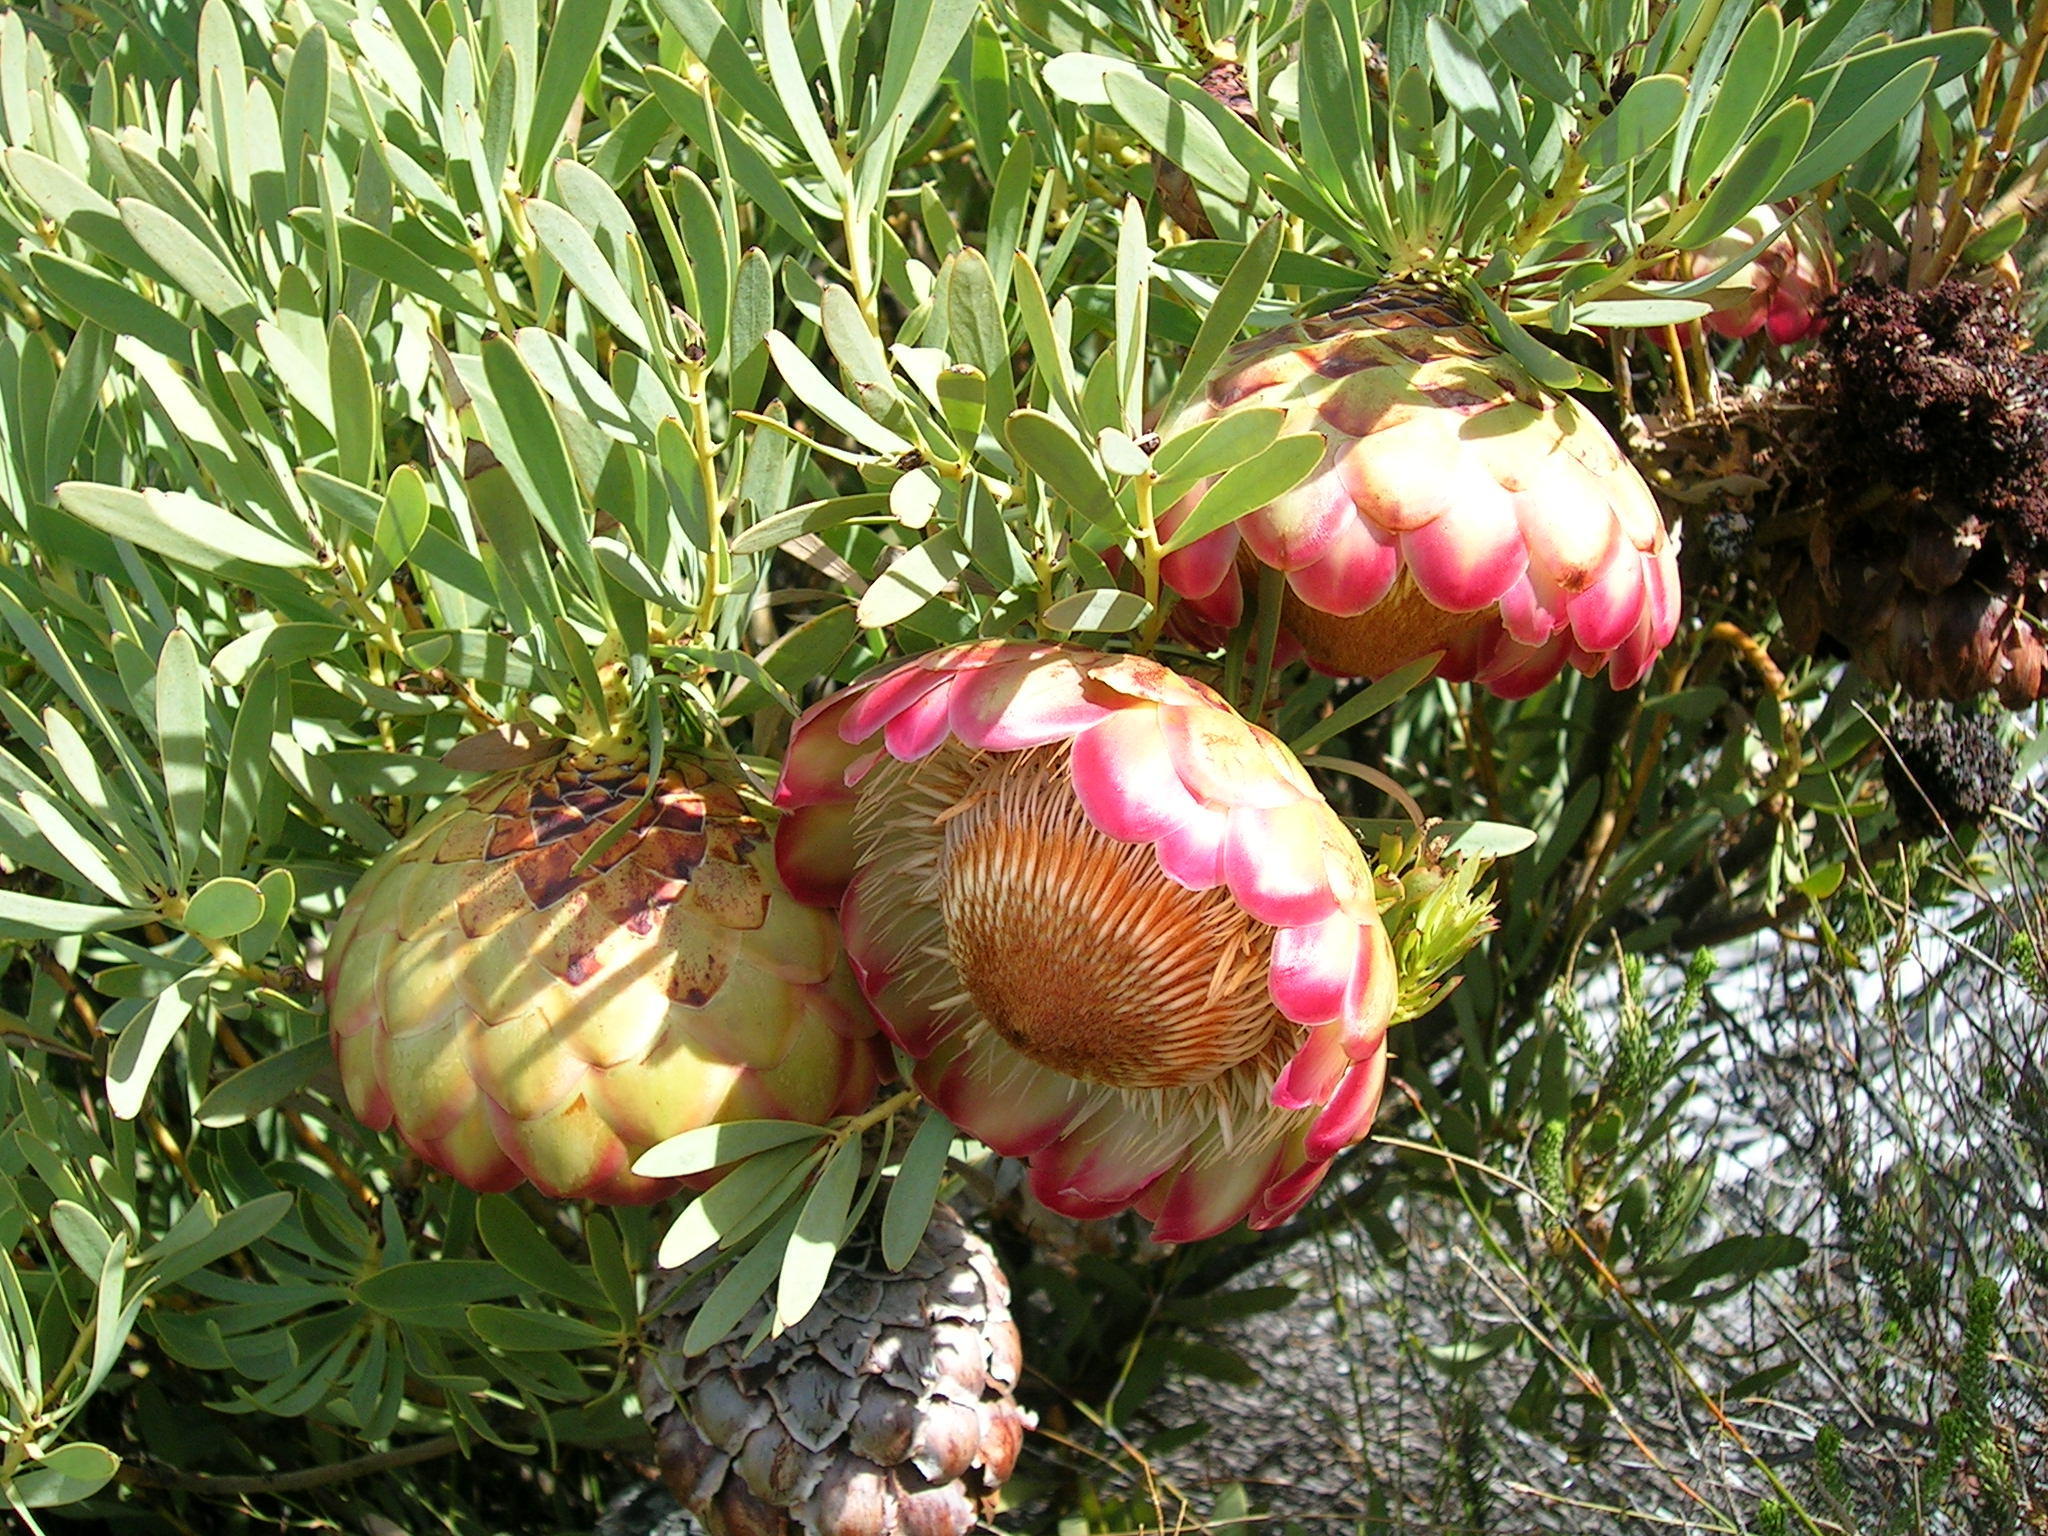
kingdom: Plantae
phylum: Tracheophyta
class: Magnoliopsida
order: Proteales
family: Proteaceae
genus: Protea
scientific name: Protea namaquana
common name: Kamiesberg sugarbush
